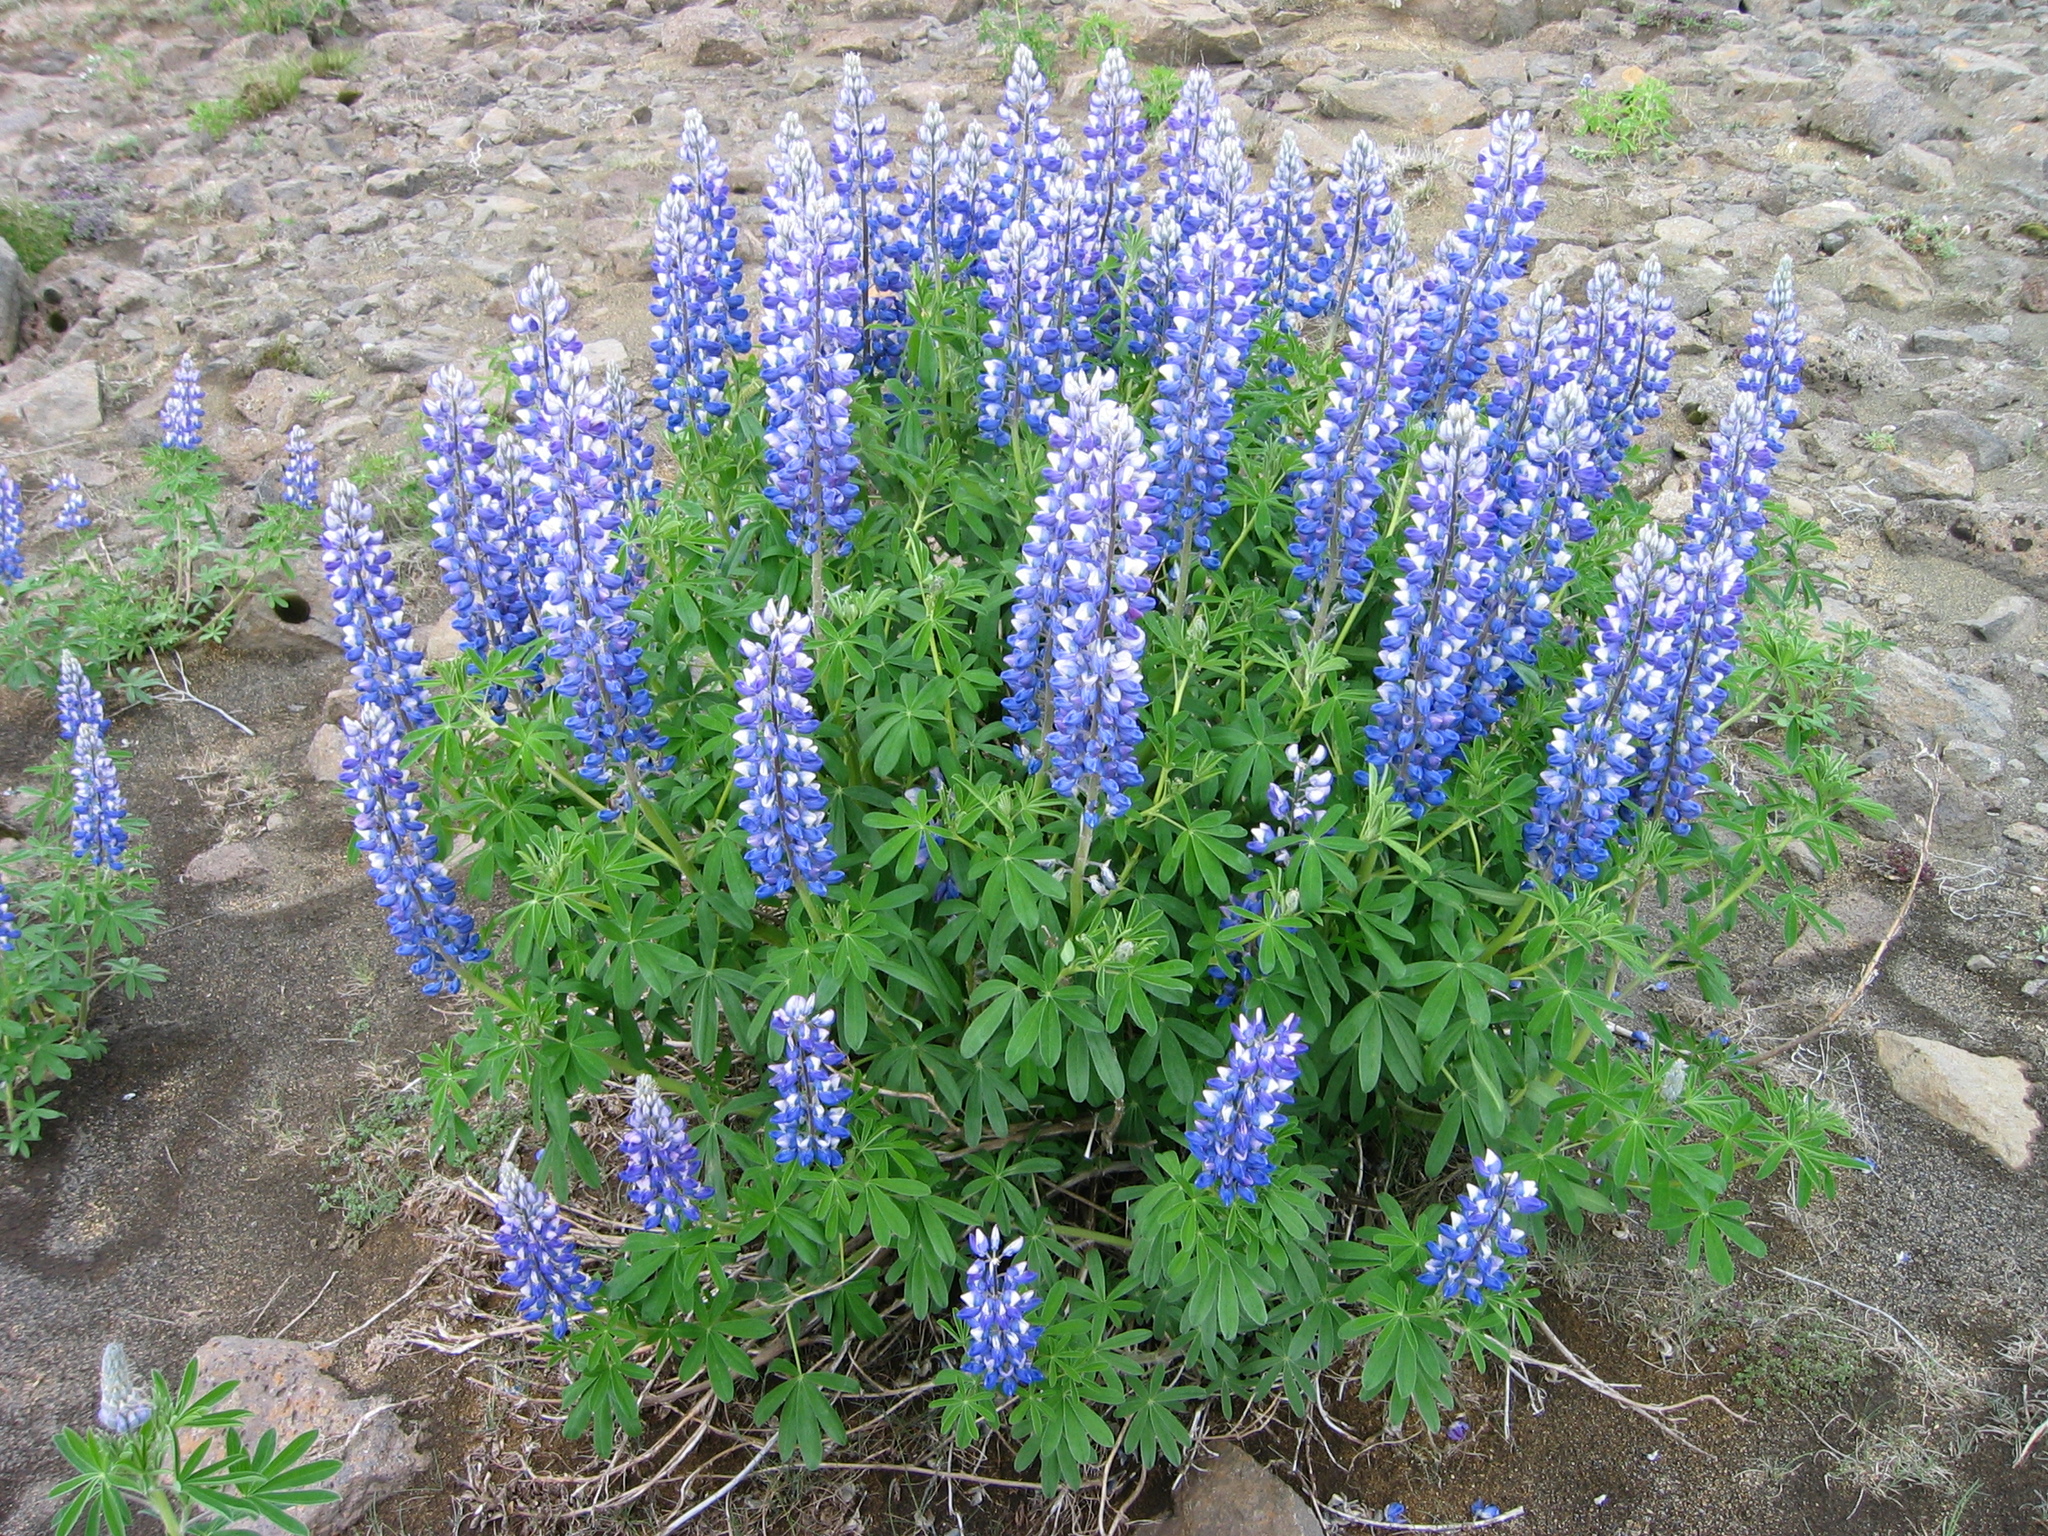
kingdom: Plantae
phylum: Tracheophyta
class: Magnoliopsida
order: Fabales
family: Fabaceae
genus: Lupinus
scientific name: Lupinus nootkatensis
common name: Nootka lupine
